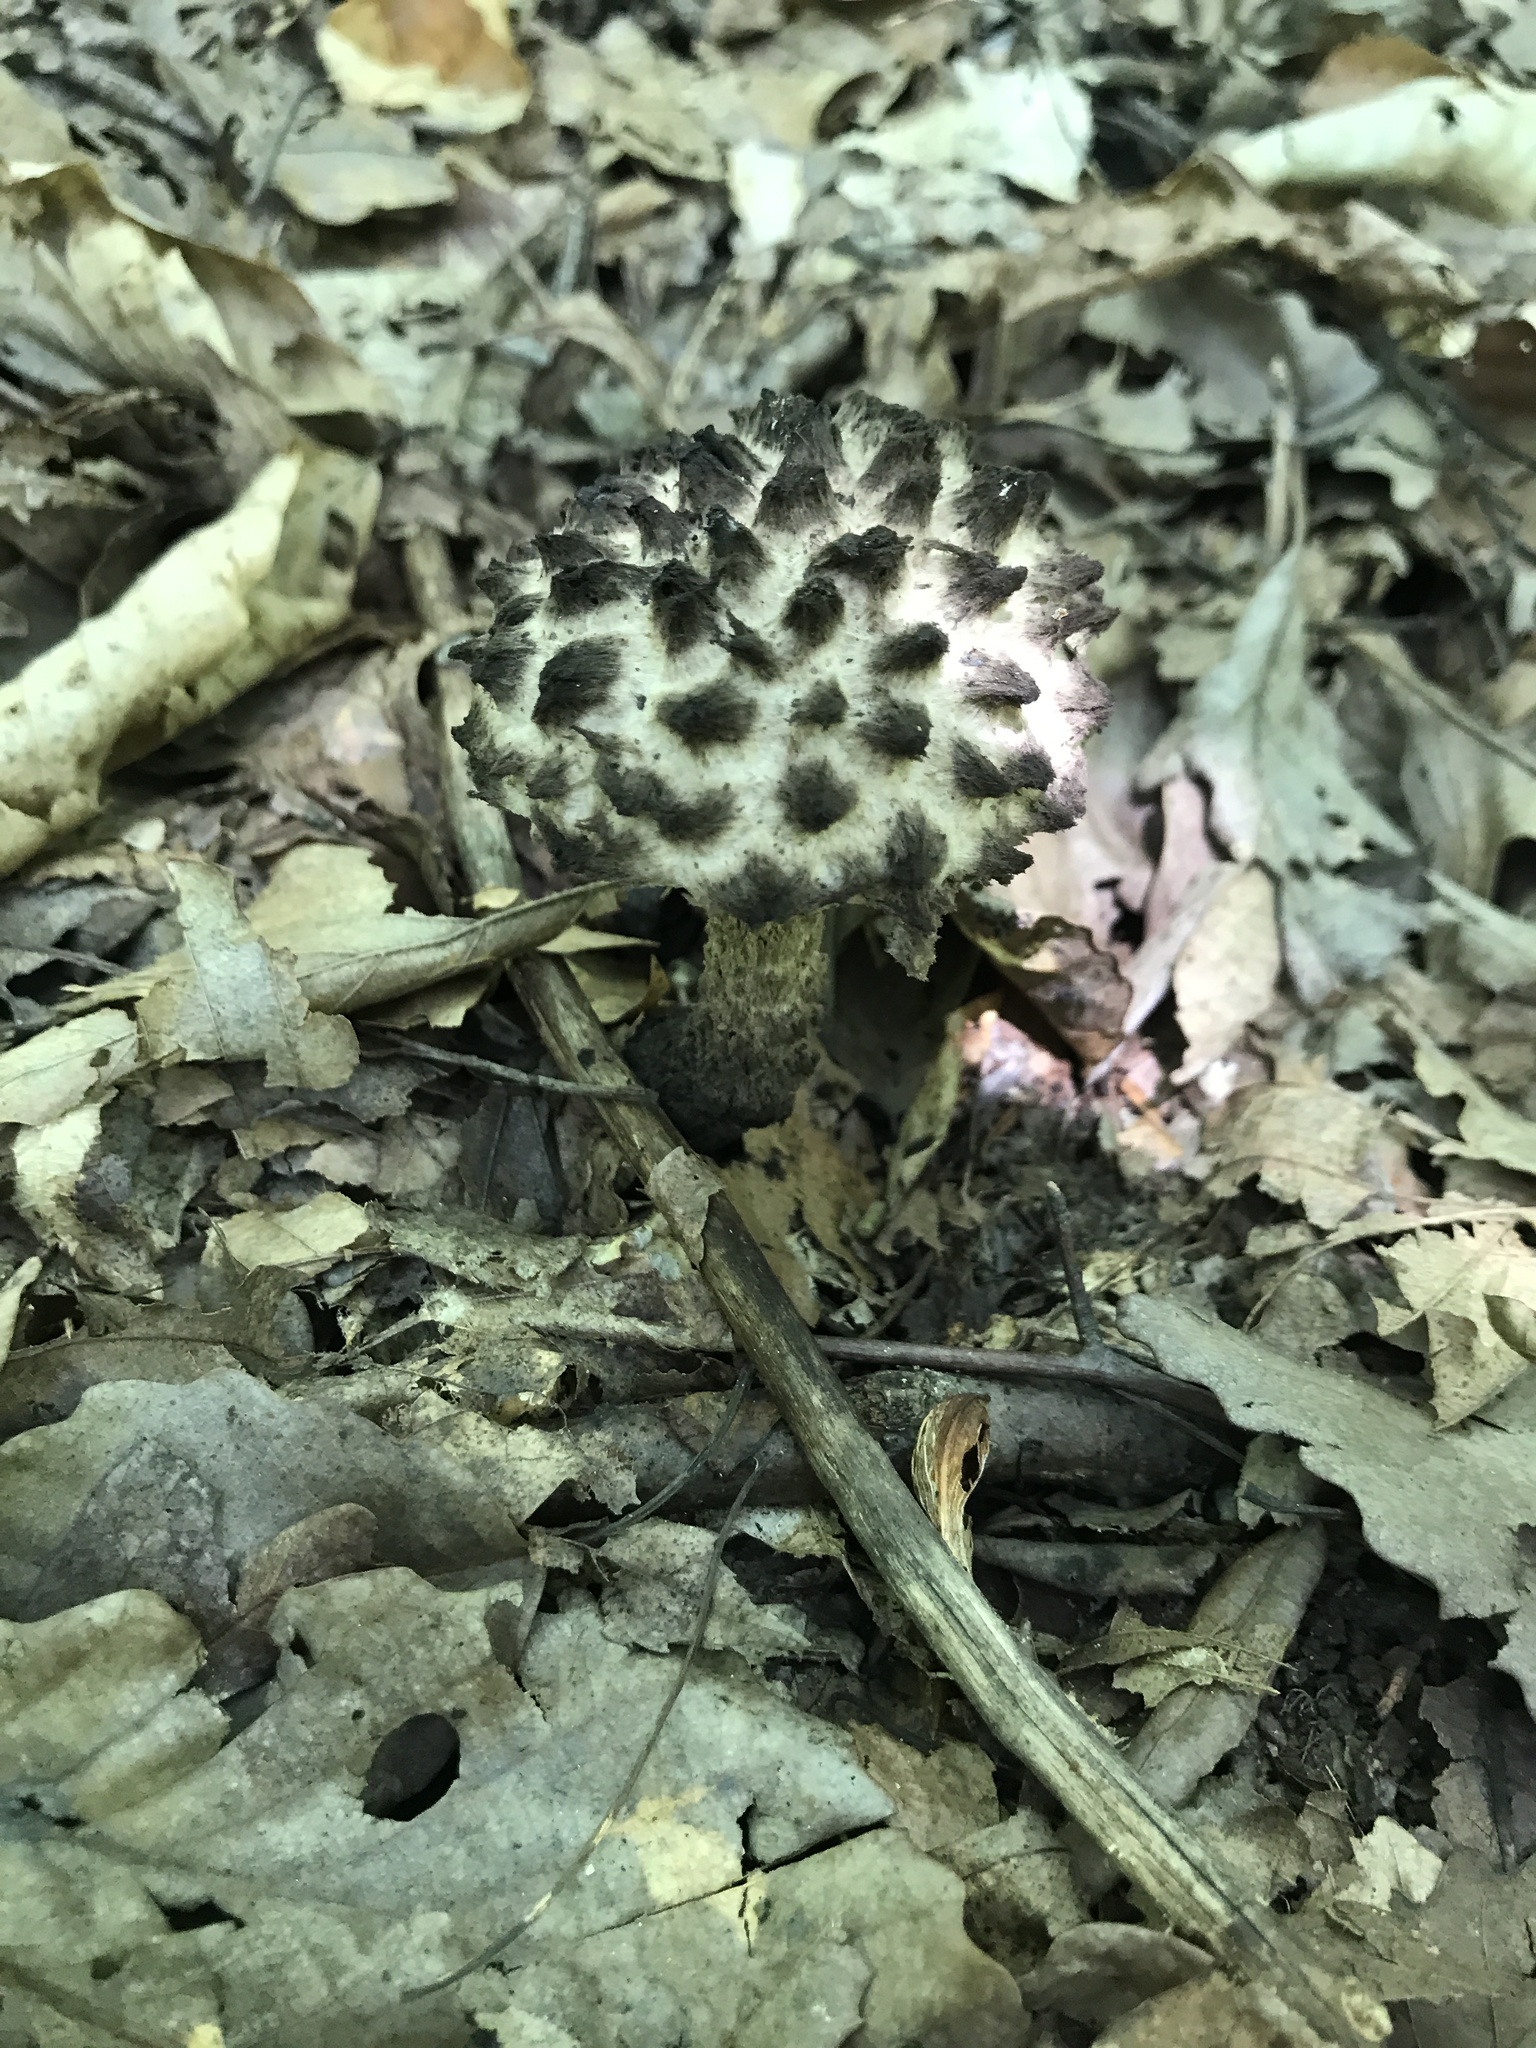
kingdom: Fungi
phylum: Basidiomycota
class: Agaricomycetes
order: Boletales
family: Boletaceae
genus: Strobilomyces
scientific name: Strobilomyces strobilaceus
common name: Old man of the woods
